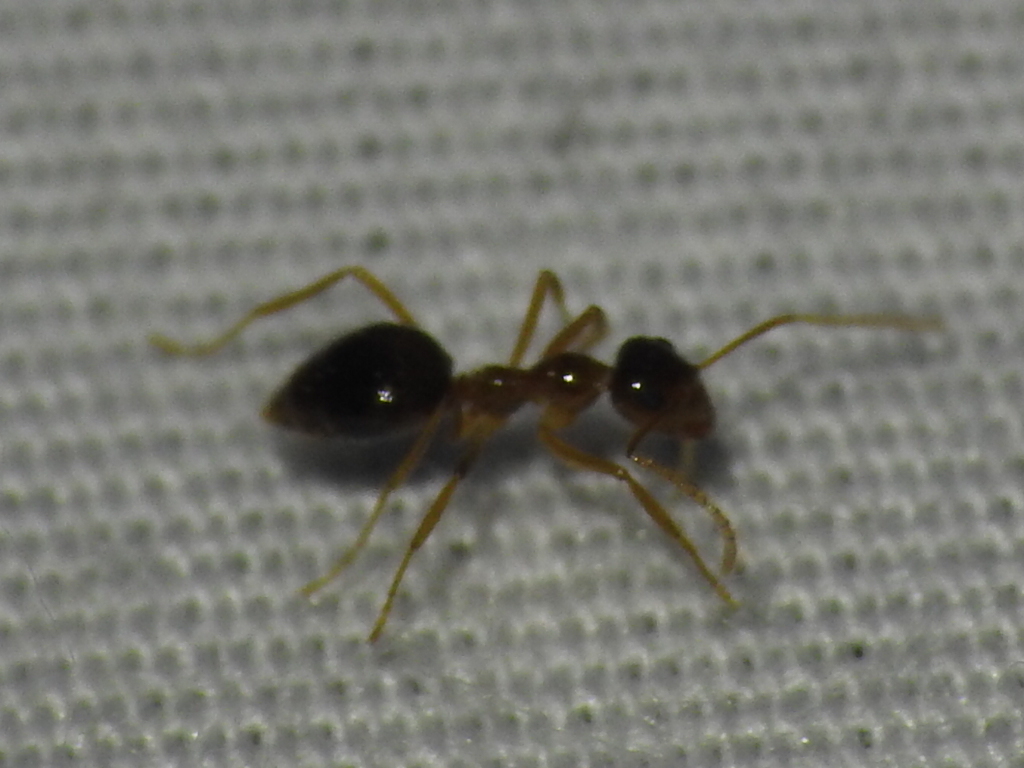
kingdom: Animalia
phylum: Arthropoda
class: Insecta
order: Hymenoptera
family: Formicidae
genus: Prenolepis
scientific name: Prenolepis imparis
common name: Small honey ant
